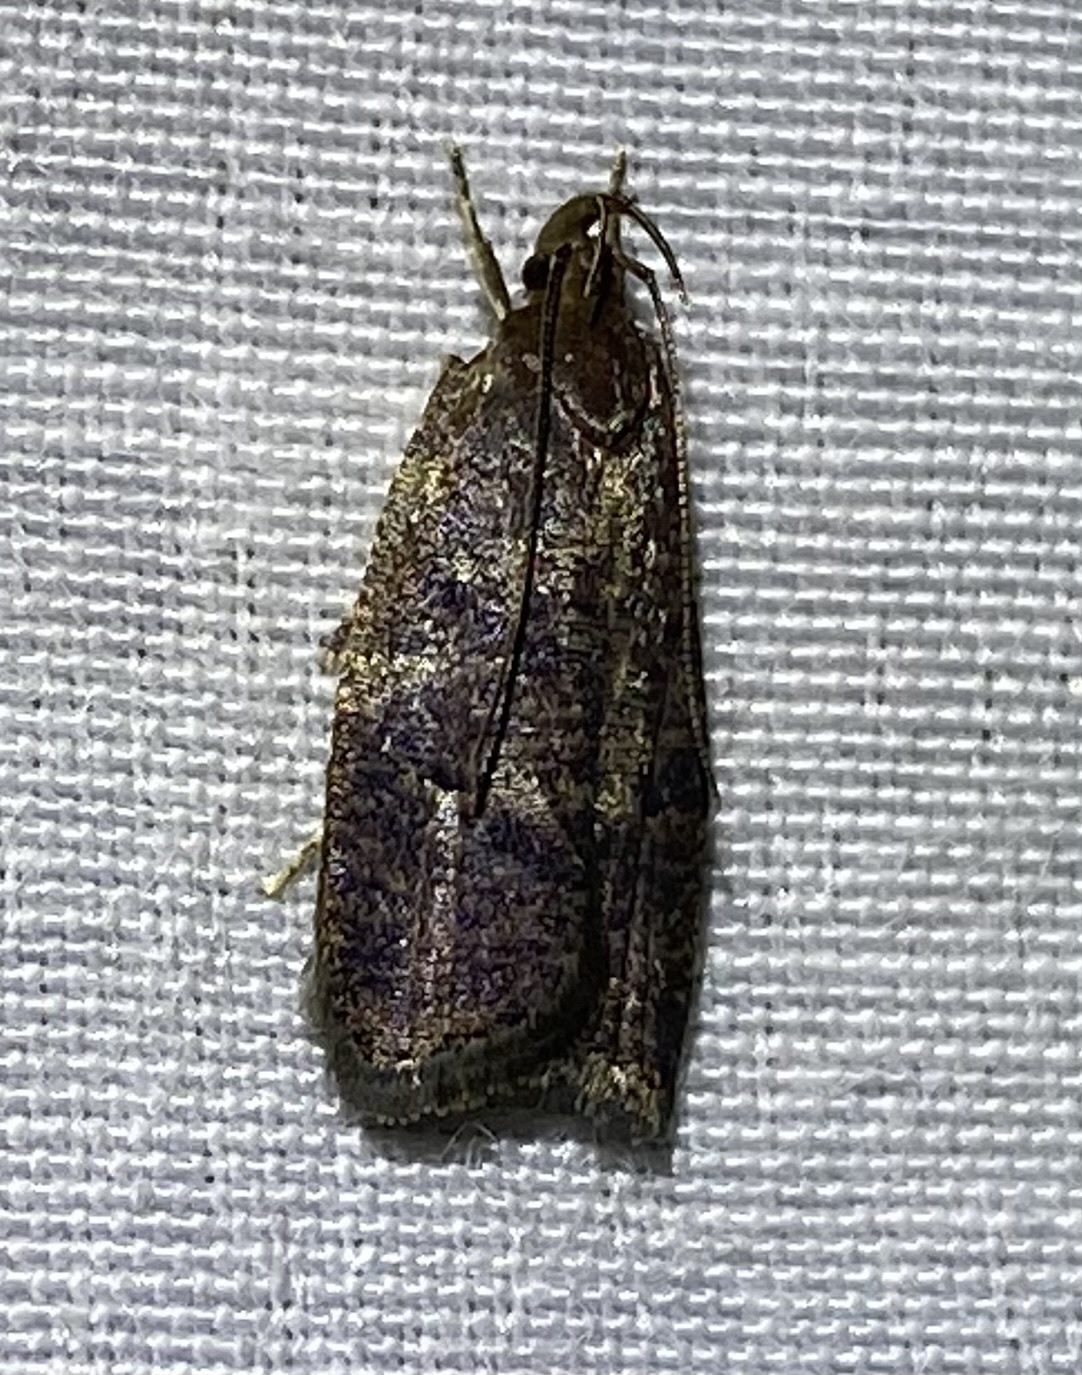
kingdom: Animalia
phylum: Arthropoda
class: Insecta
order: Lepidoptera
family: Depressariidae
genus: Psilocorsis
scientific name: Psilocorsis reflexella
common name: Dotted leaftier moth
